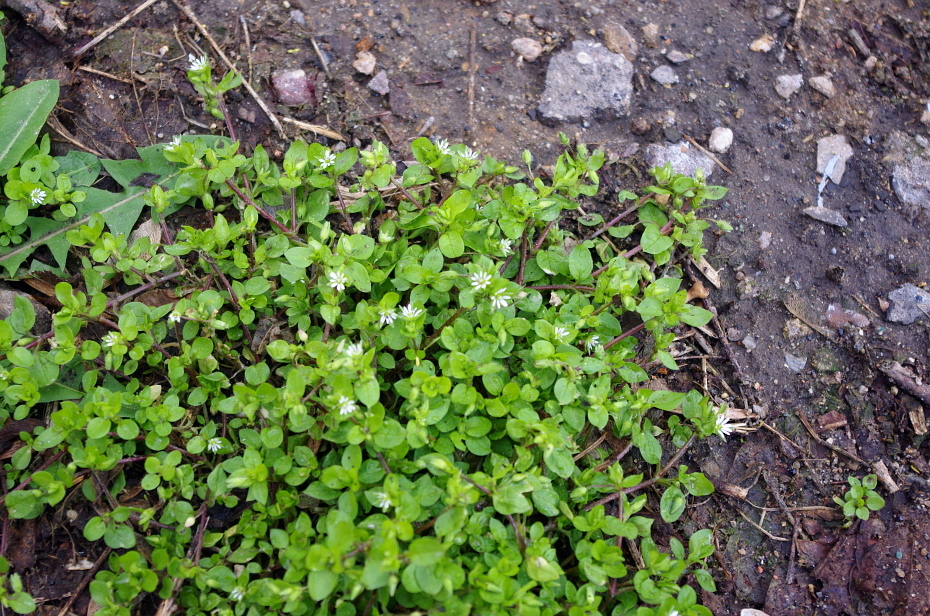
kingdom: Plantae
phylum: Tracheophyta
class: Magnoliopsida
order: Caryophyllales
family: Caryophyllaceae
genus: Stellaria
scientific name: Stellaria media
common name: Common chickweed
